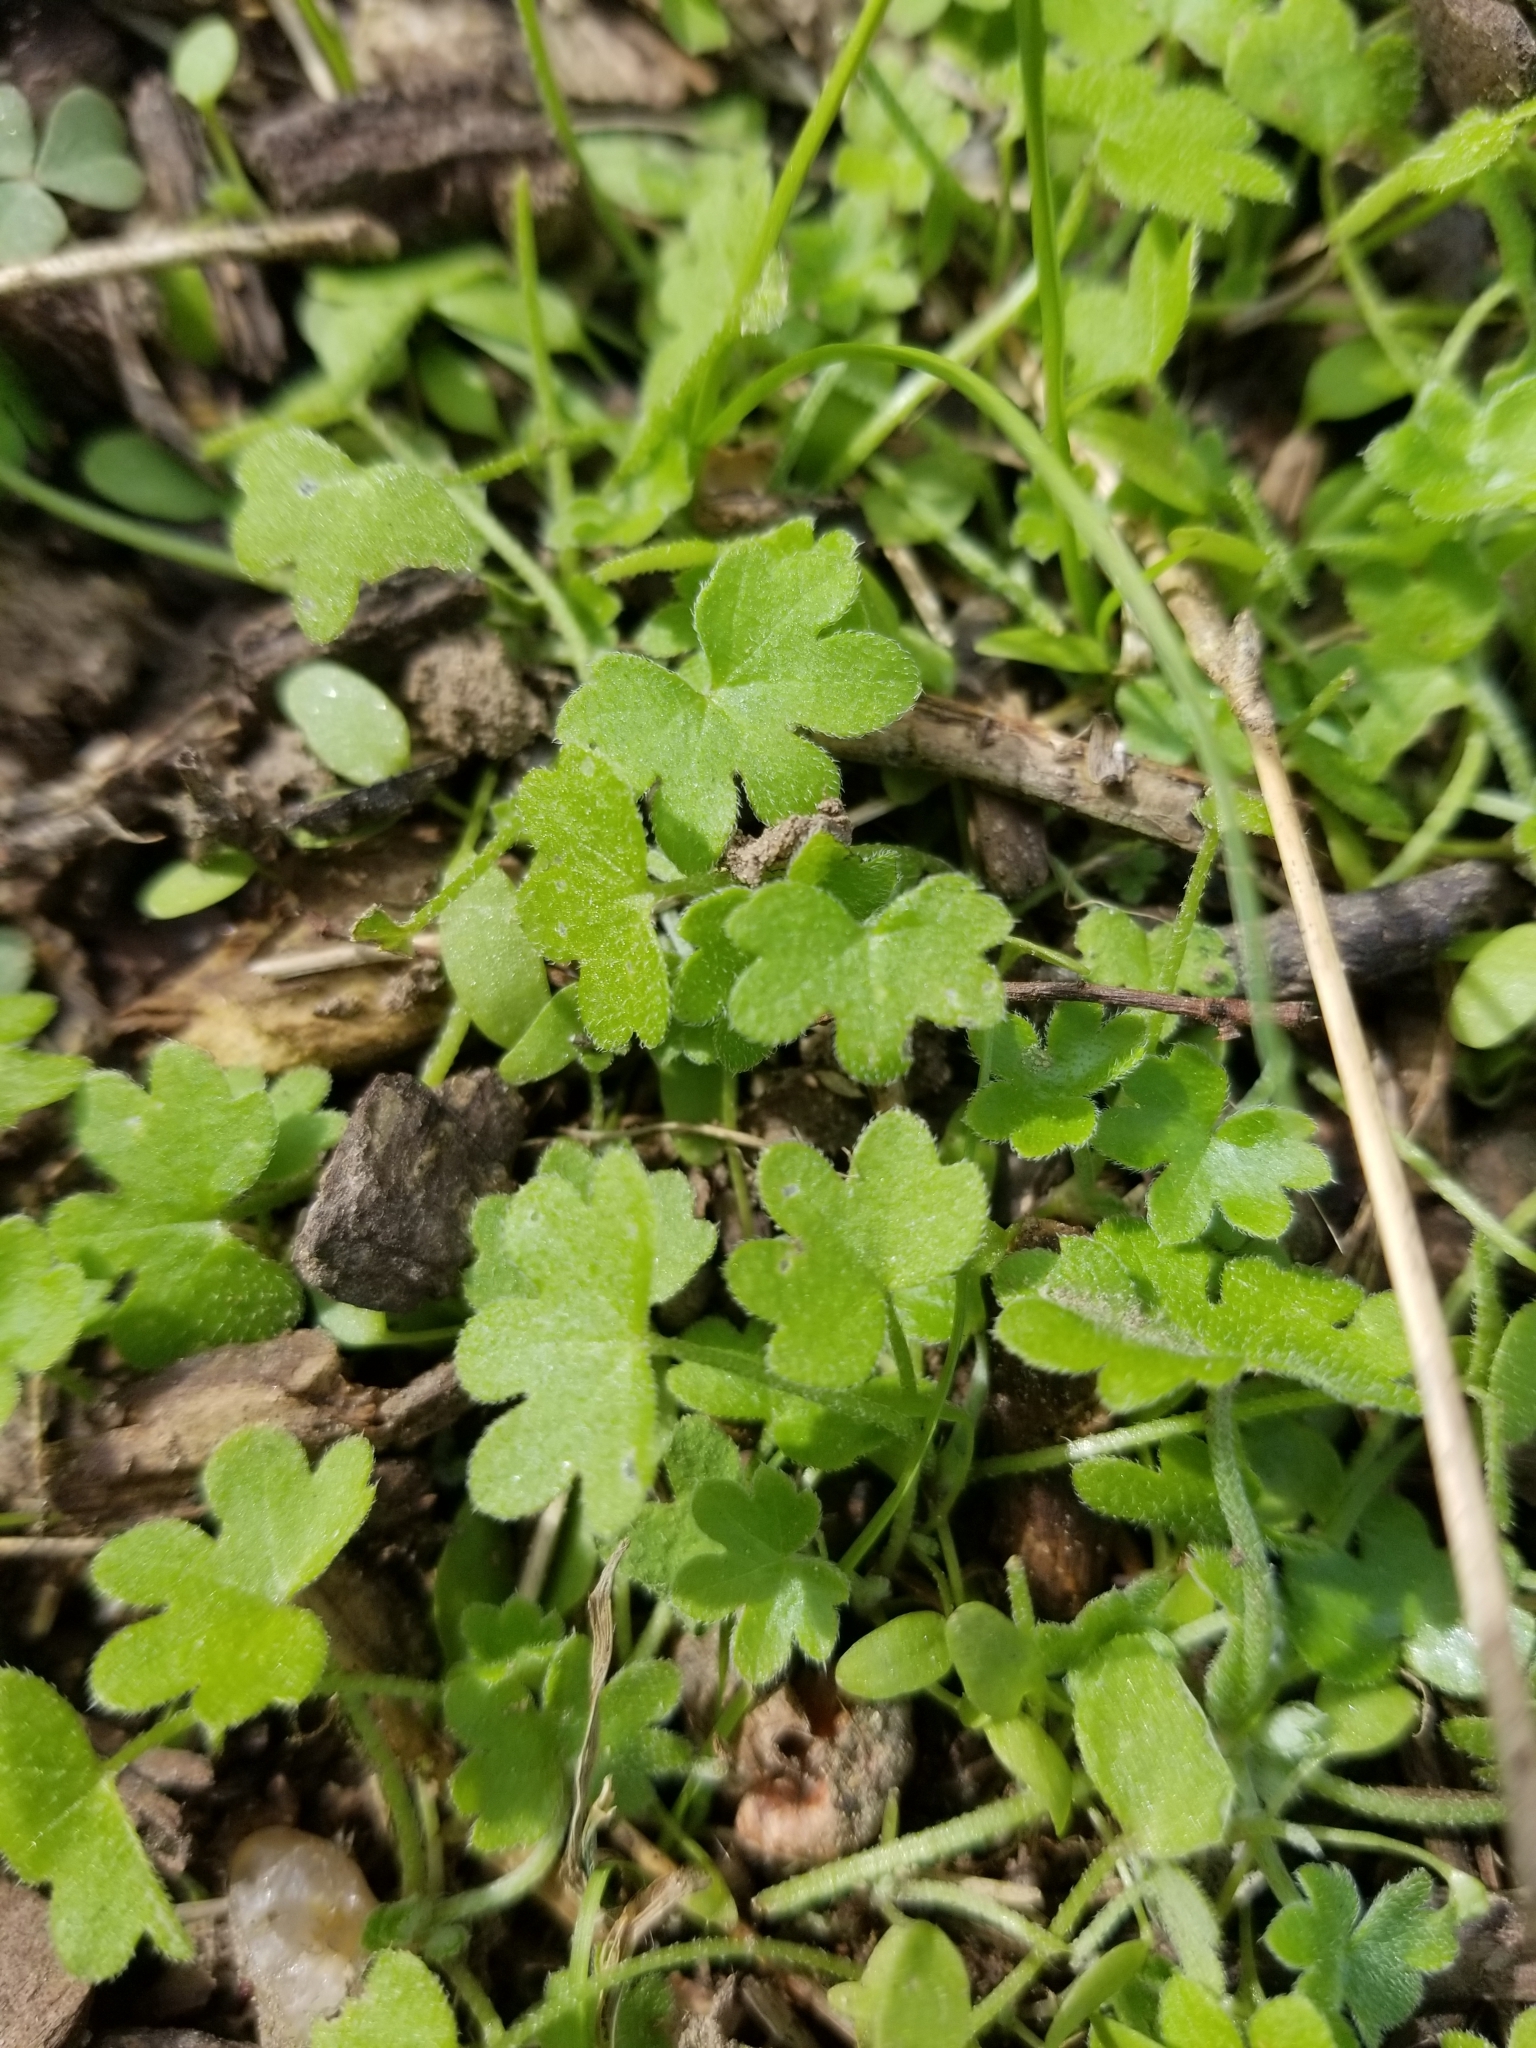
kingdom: Plantae
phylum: Tracheophyta
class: Magnoliopsida
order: Apiales
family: Apiaceae
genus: Bowlesia
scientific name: Bowlesia incana
